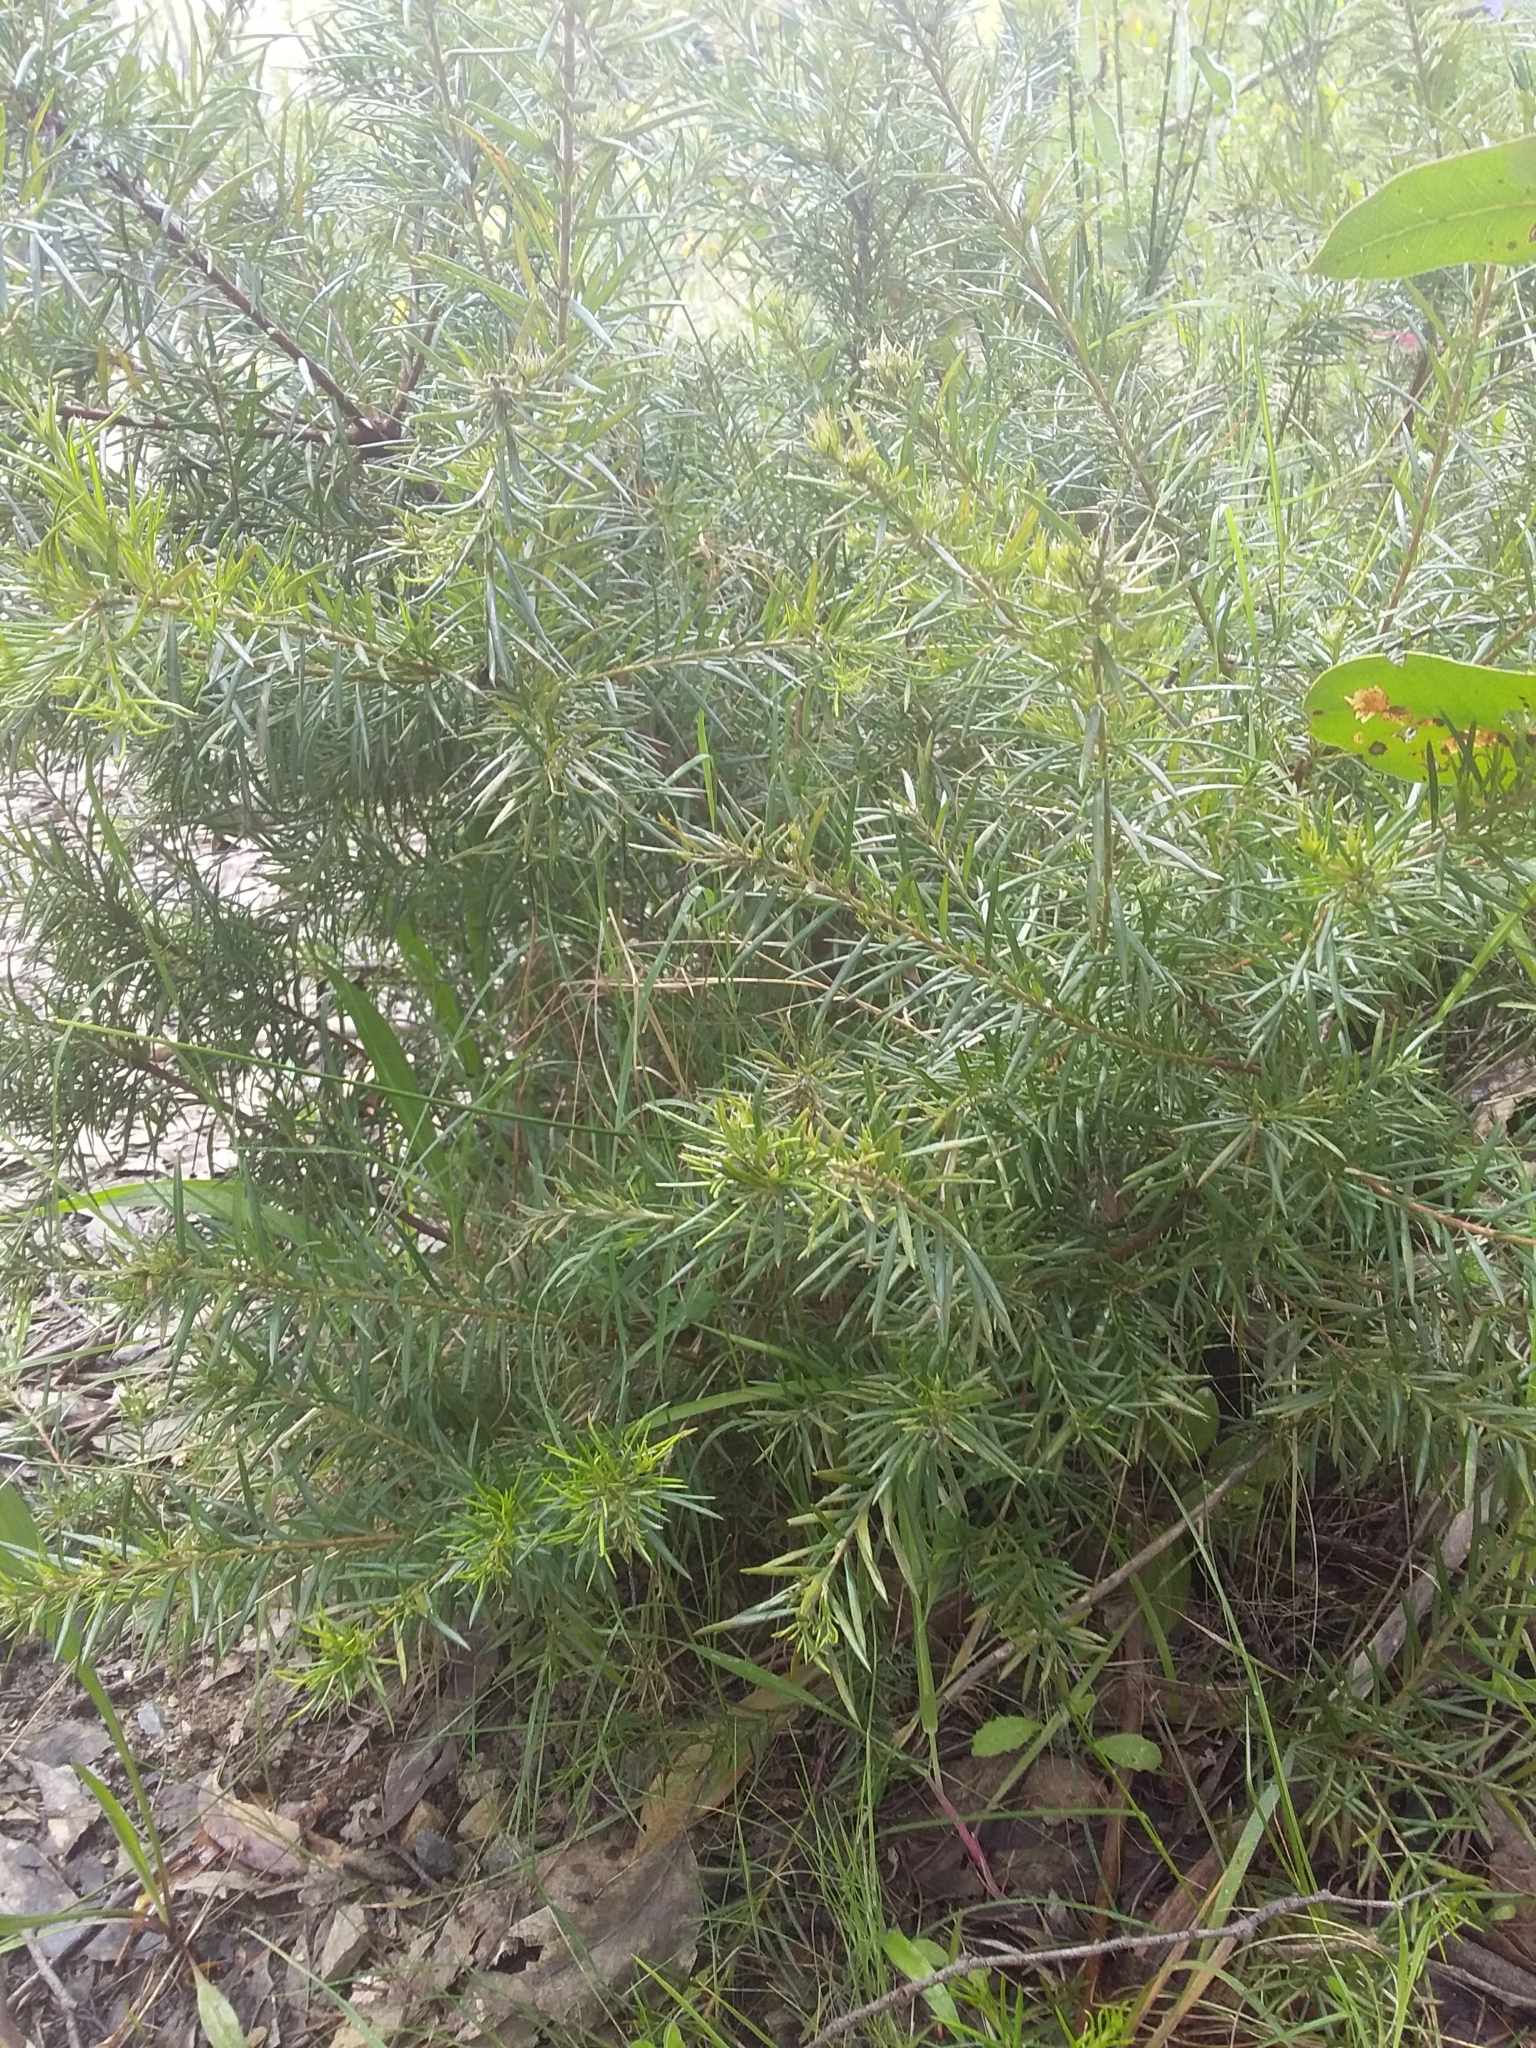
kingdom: Plantae
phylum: Tracheophyta
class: Magnoliopsida
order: Proteales
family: Proteaceae
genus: Grevillea
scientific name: Grevillea rosmarinifolia
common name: Rosemary grevillea
